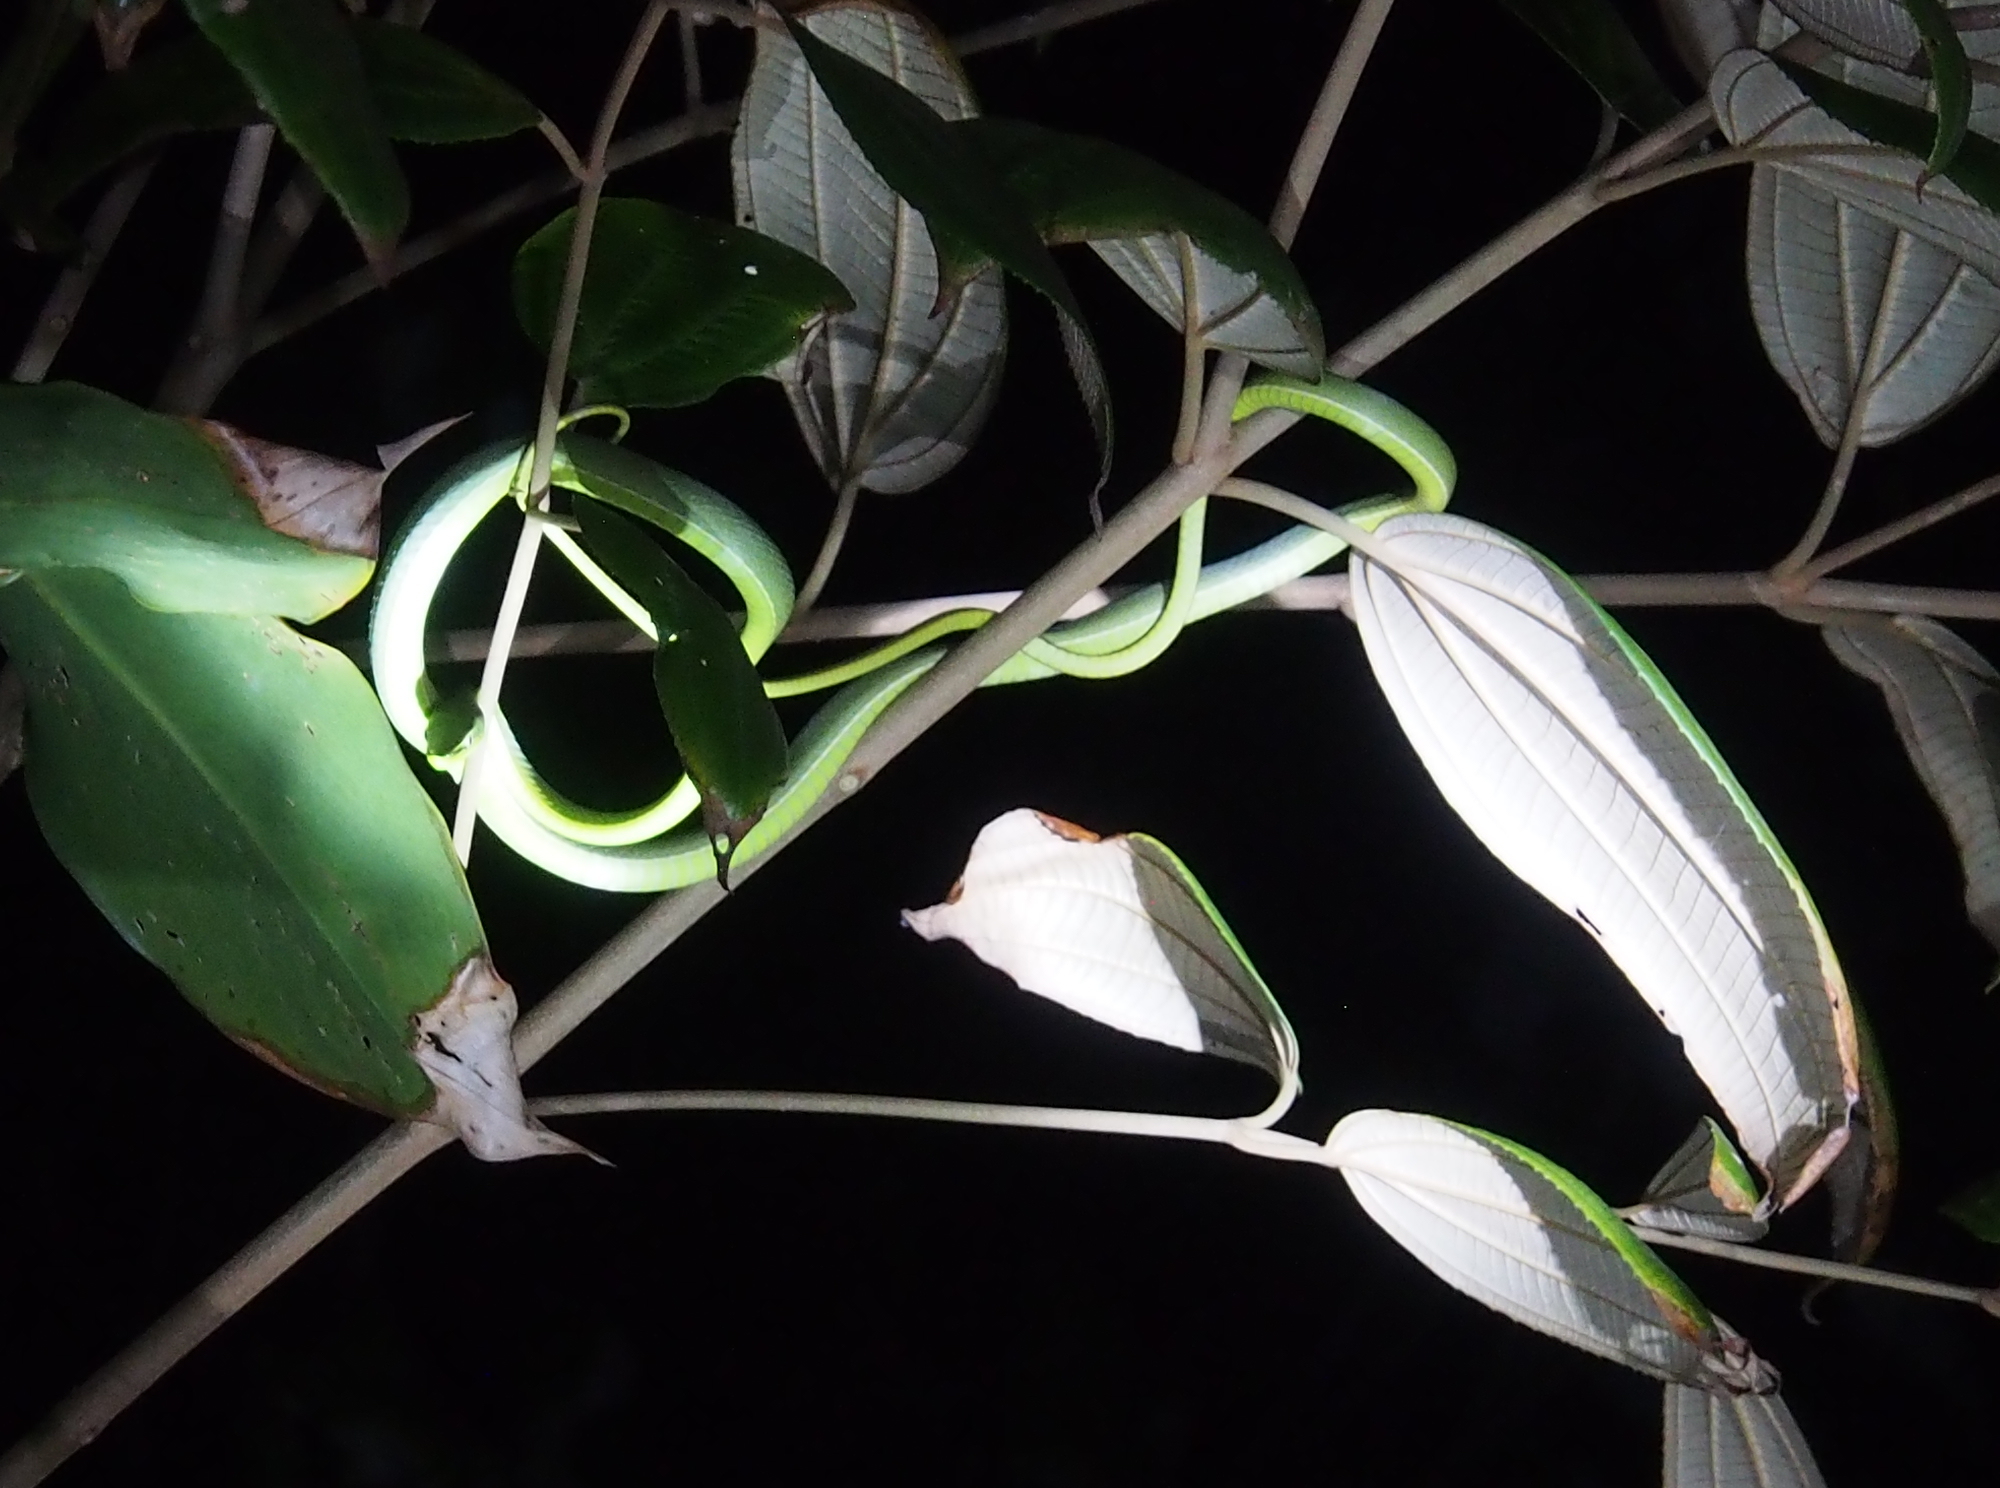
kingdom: Animalia
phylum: Chordata
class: Squamata
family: Colubridae
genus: Oxybelis
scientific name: Oxybelis fulgidus
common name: Green vine snake
